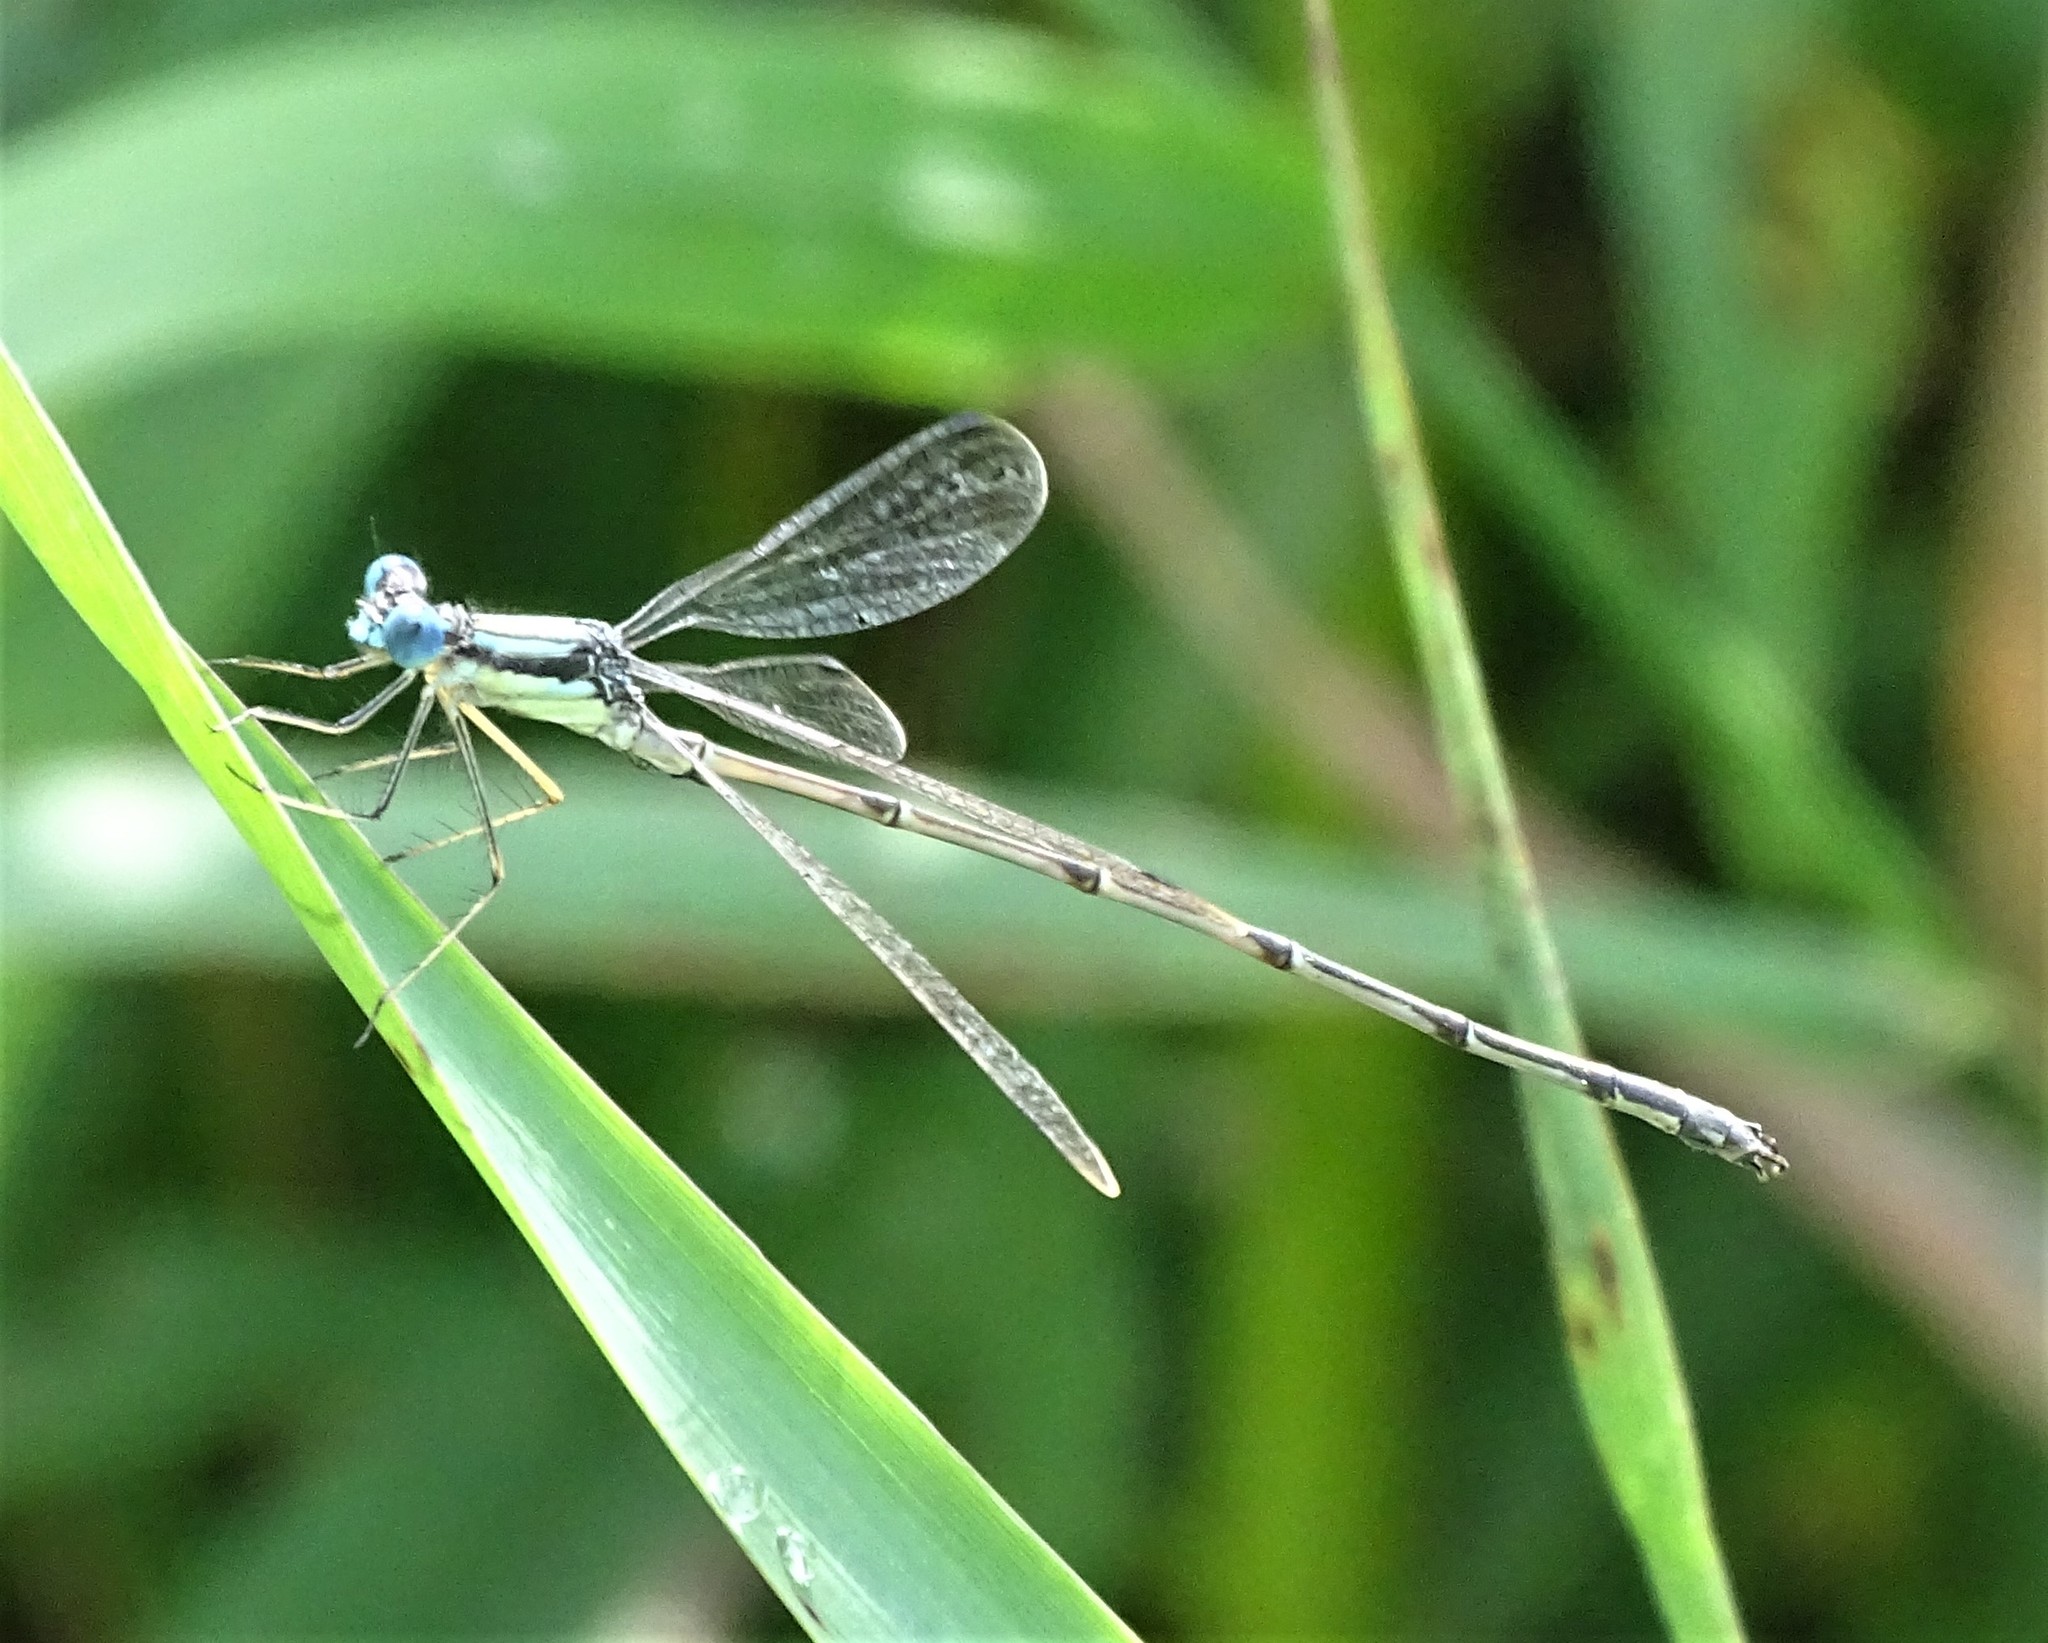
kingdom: Animalia
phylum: Arthropoda
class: Insecta
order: Odonata
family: Lestidae
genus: Lestes
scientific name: Lestes rectangularis
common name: Slender spreadwing
